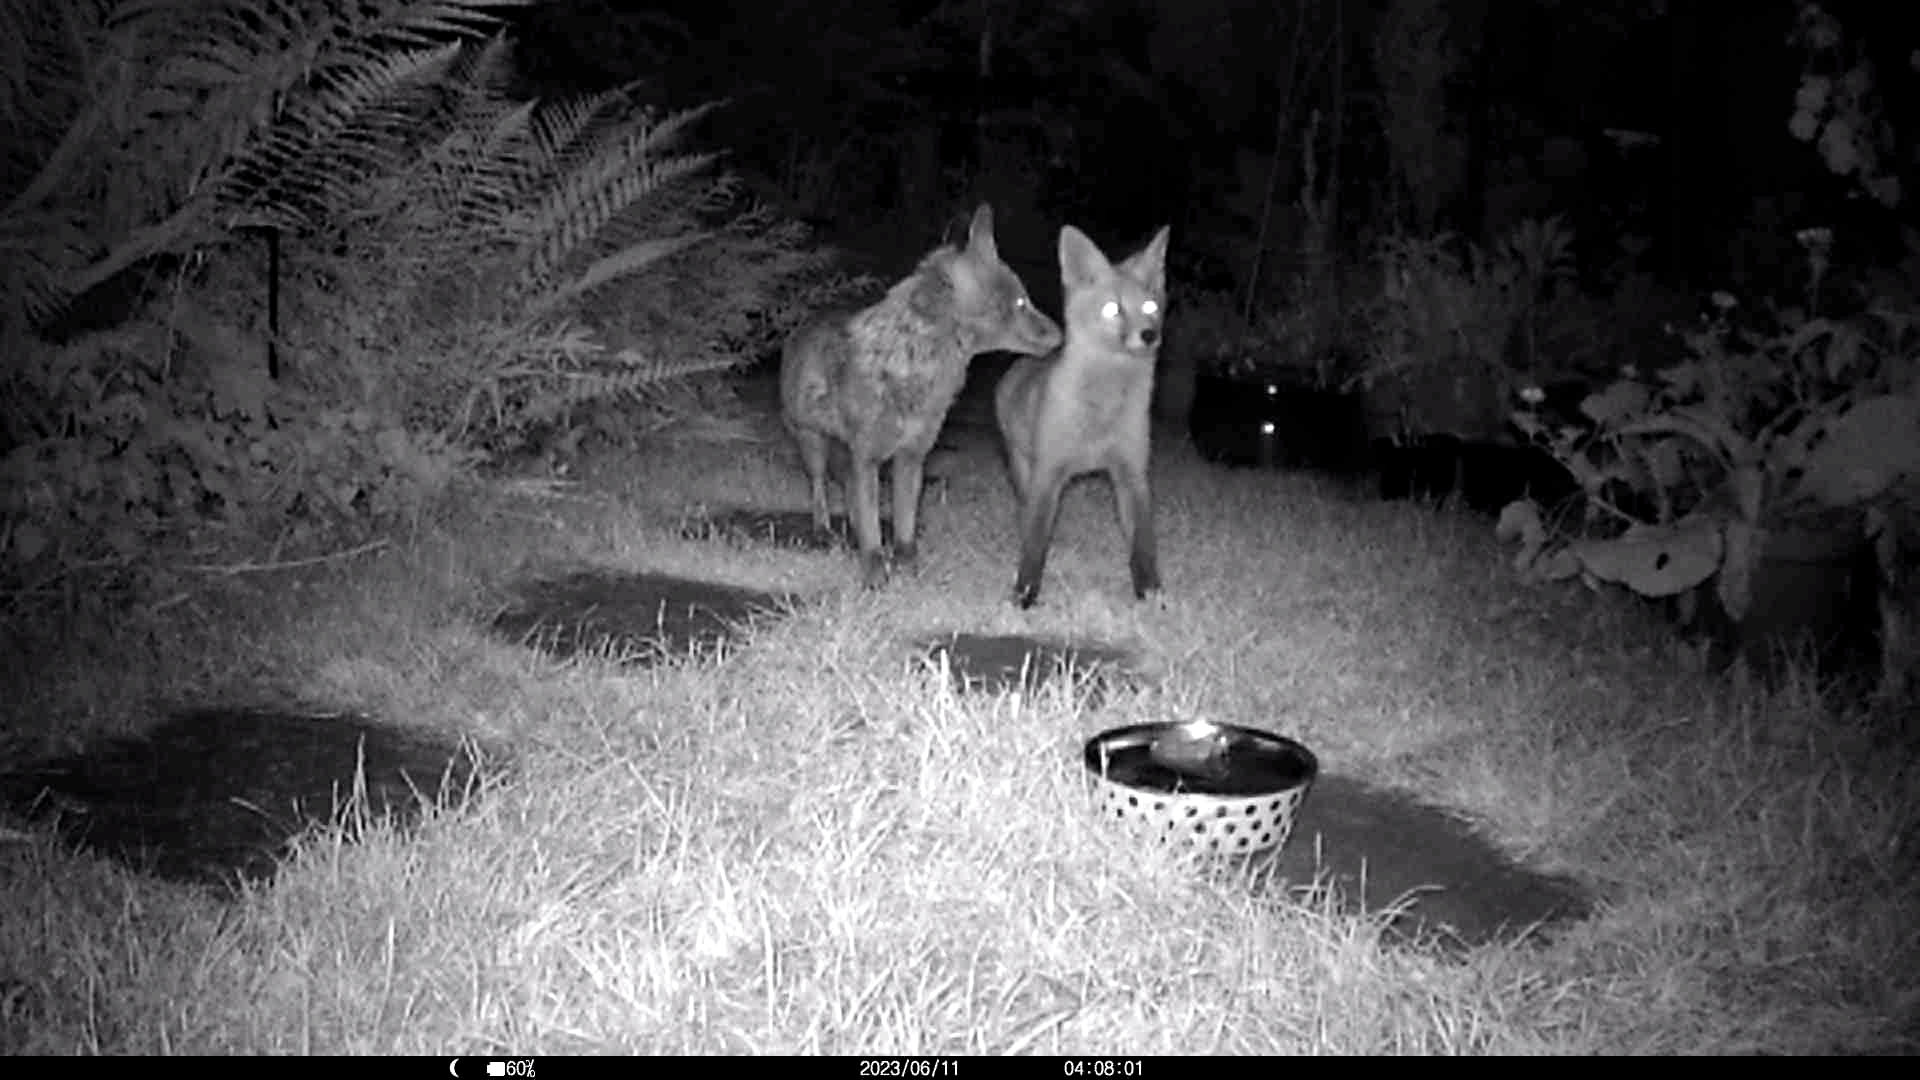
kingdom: Animalia
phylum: Chordata
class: Mammalia
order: Carnivora
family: Canidae
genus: Vulpes
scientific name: Vulpes vulpes
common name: Red fox
